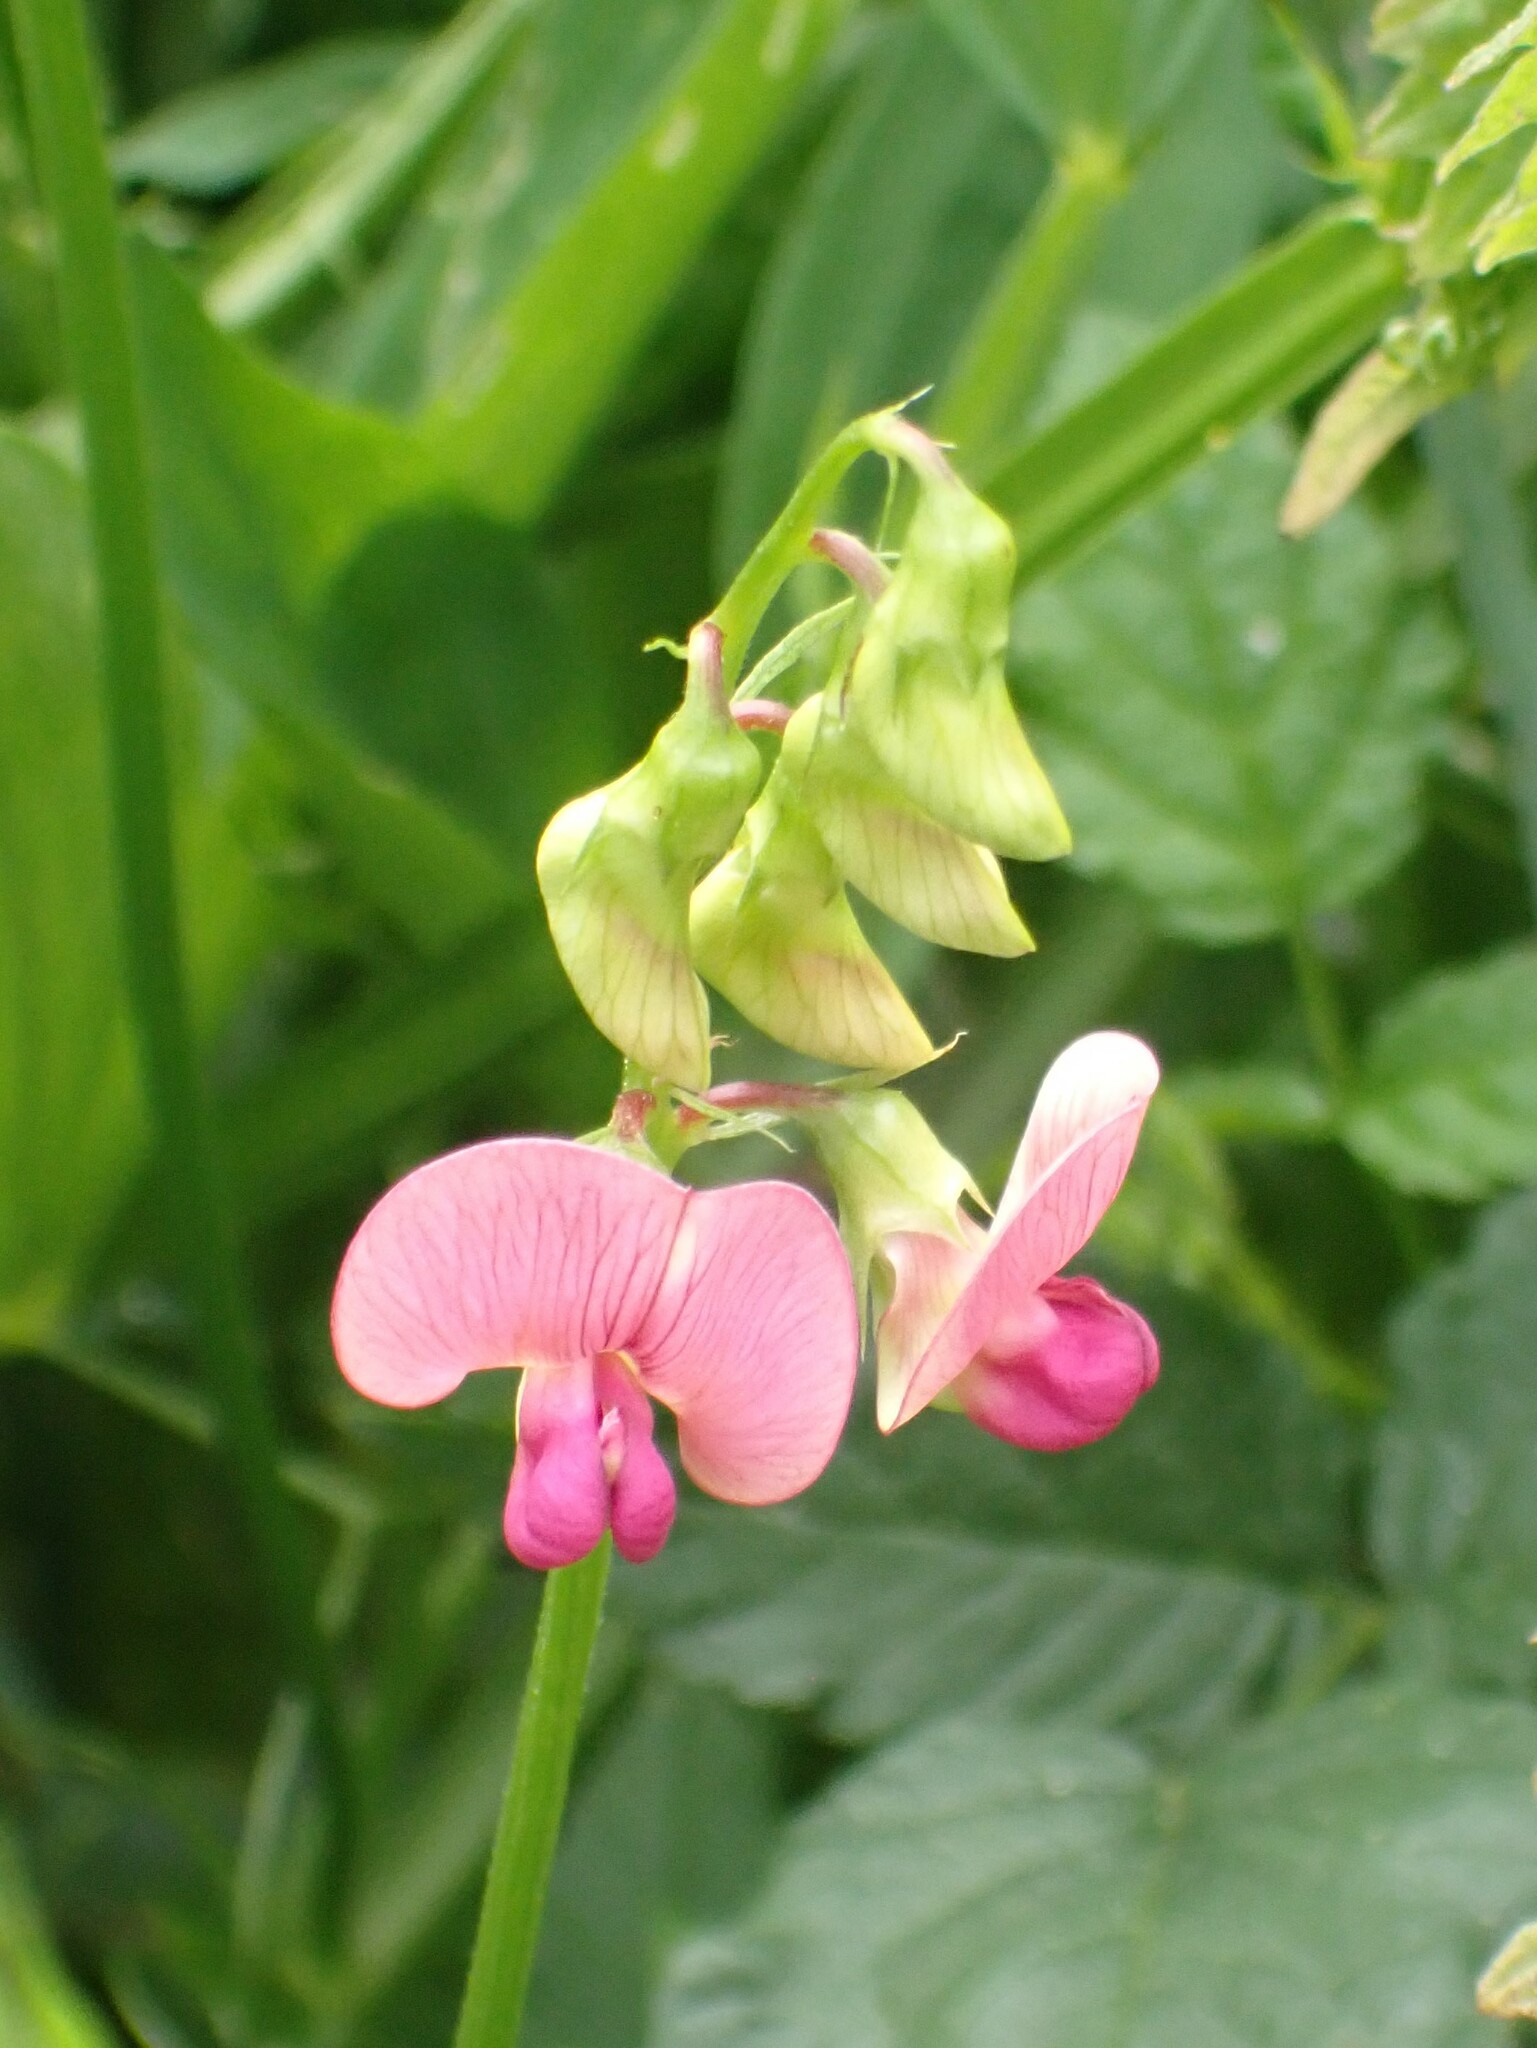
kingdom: Plantae
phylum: Tracheophyta
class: Magnoliopsida
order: Fabales
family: Fabaceae
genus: Lathyrus
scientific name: Lathyrus
